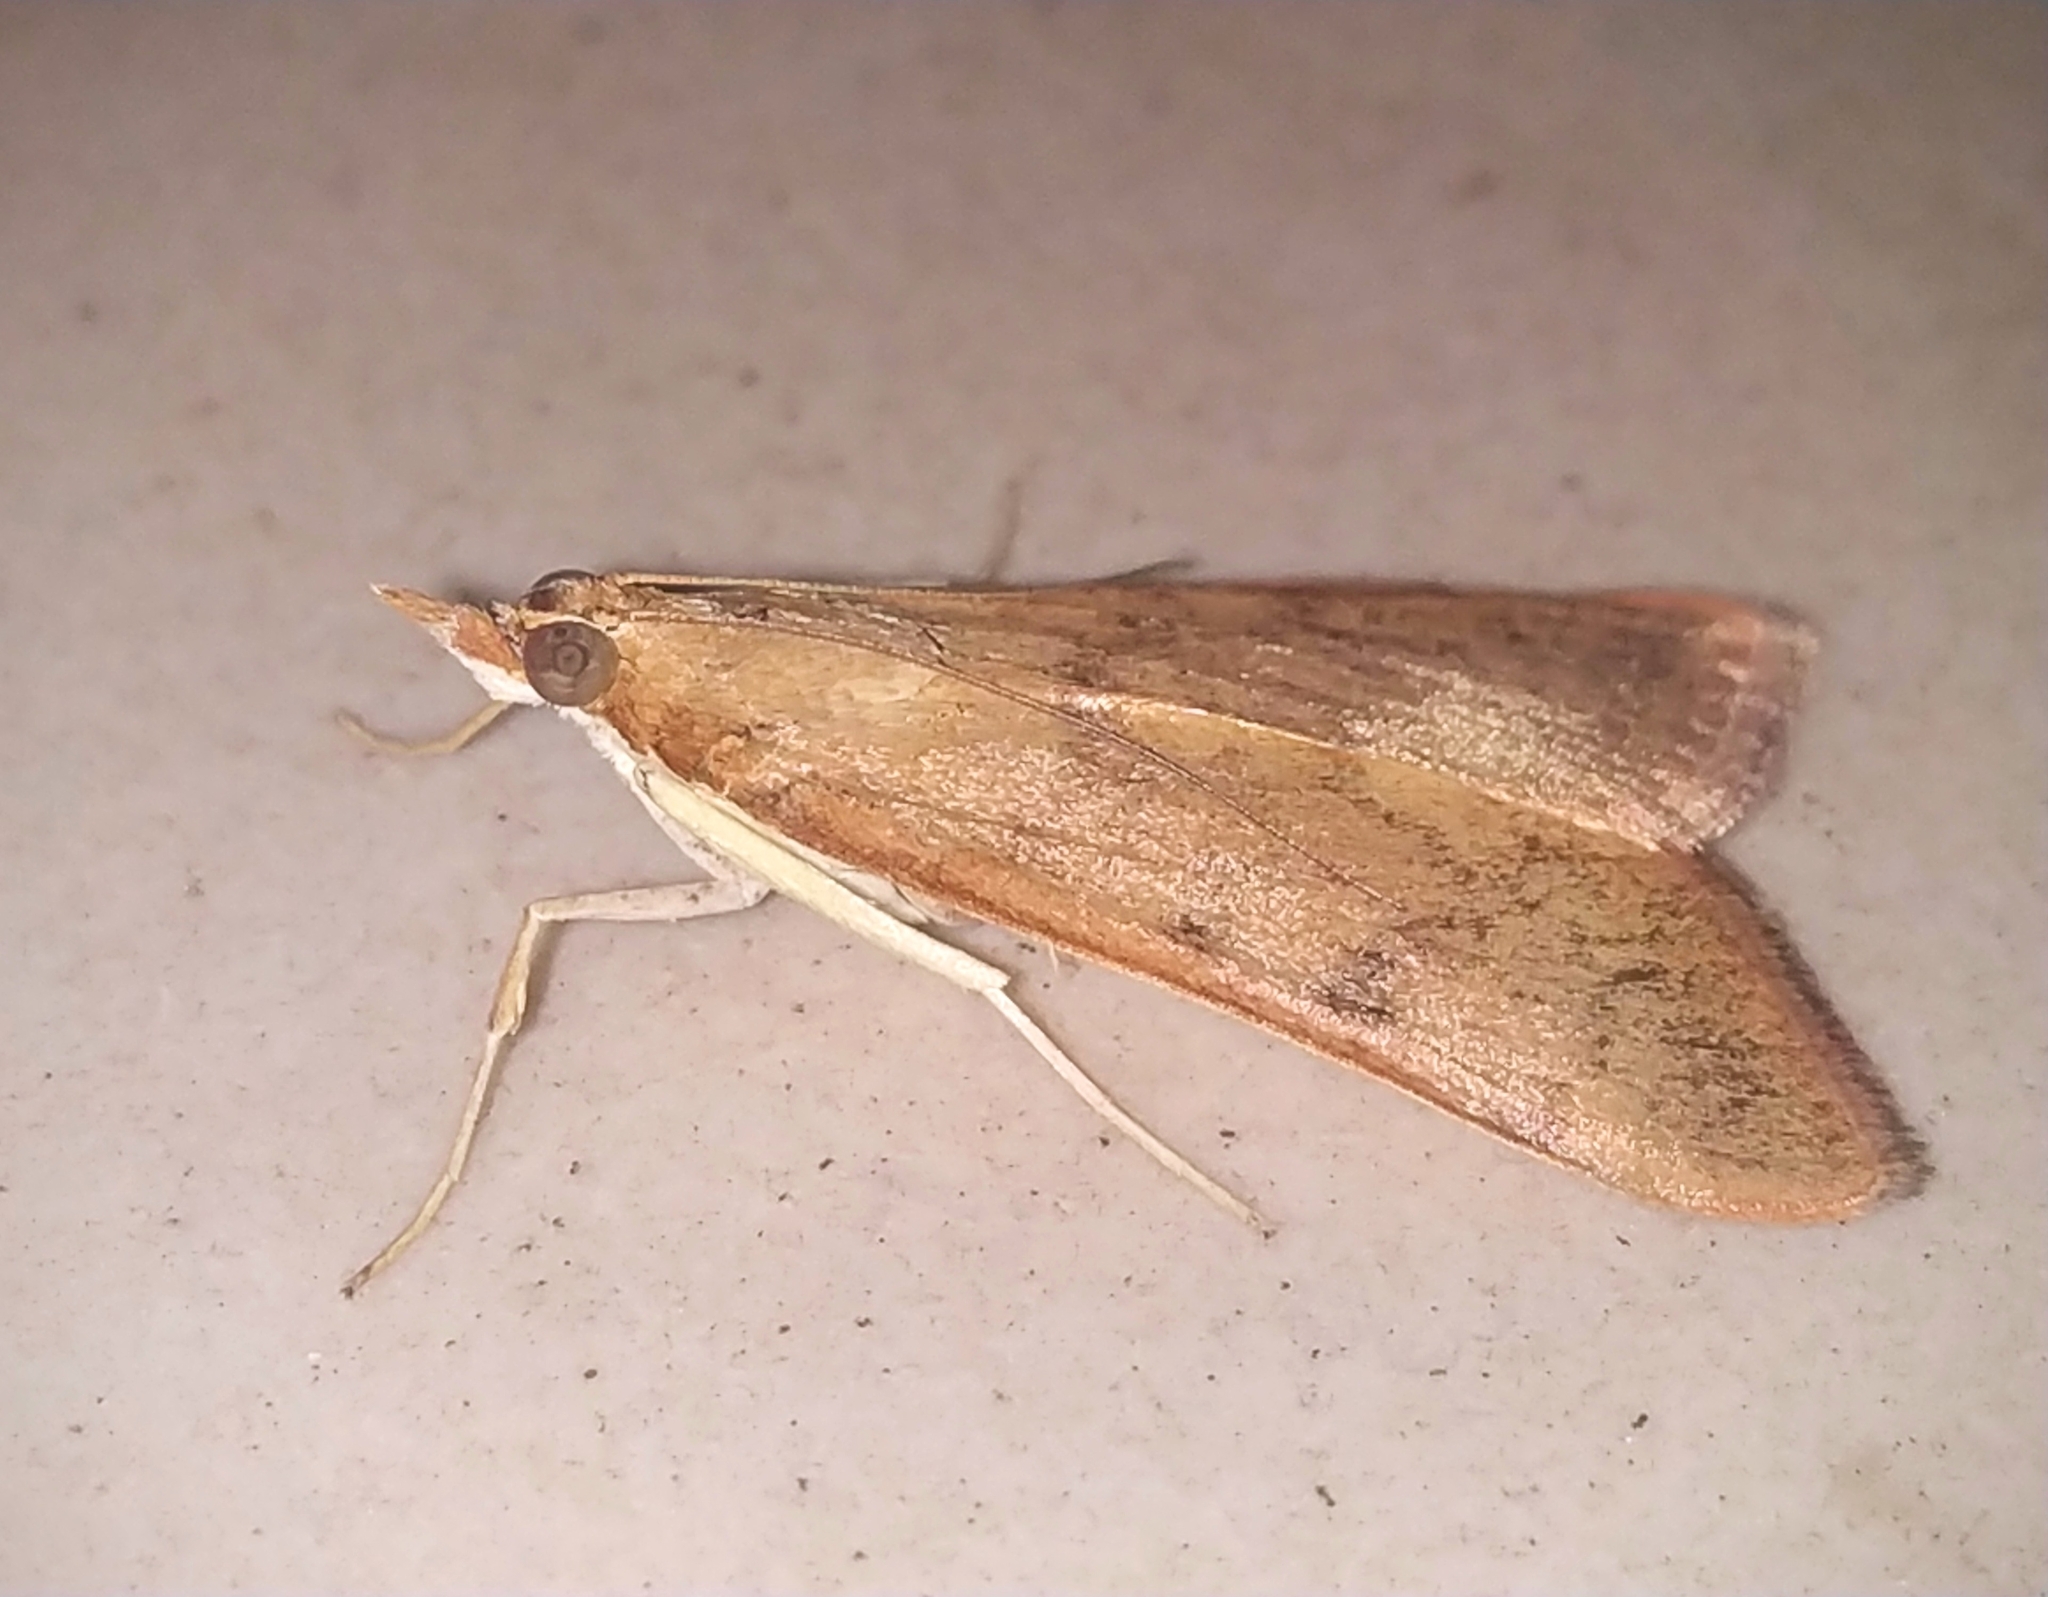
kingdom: Animalia
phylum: Arthropoda
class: Insecta
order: Lepidoptera
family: Crambidae
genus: Uresiphita
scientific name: Uresiphita gilvata
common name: Yellow-underwing pearl
